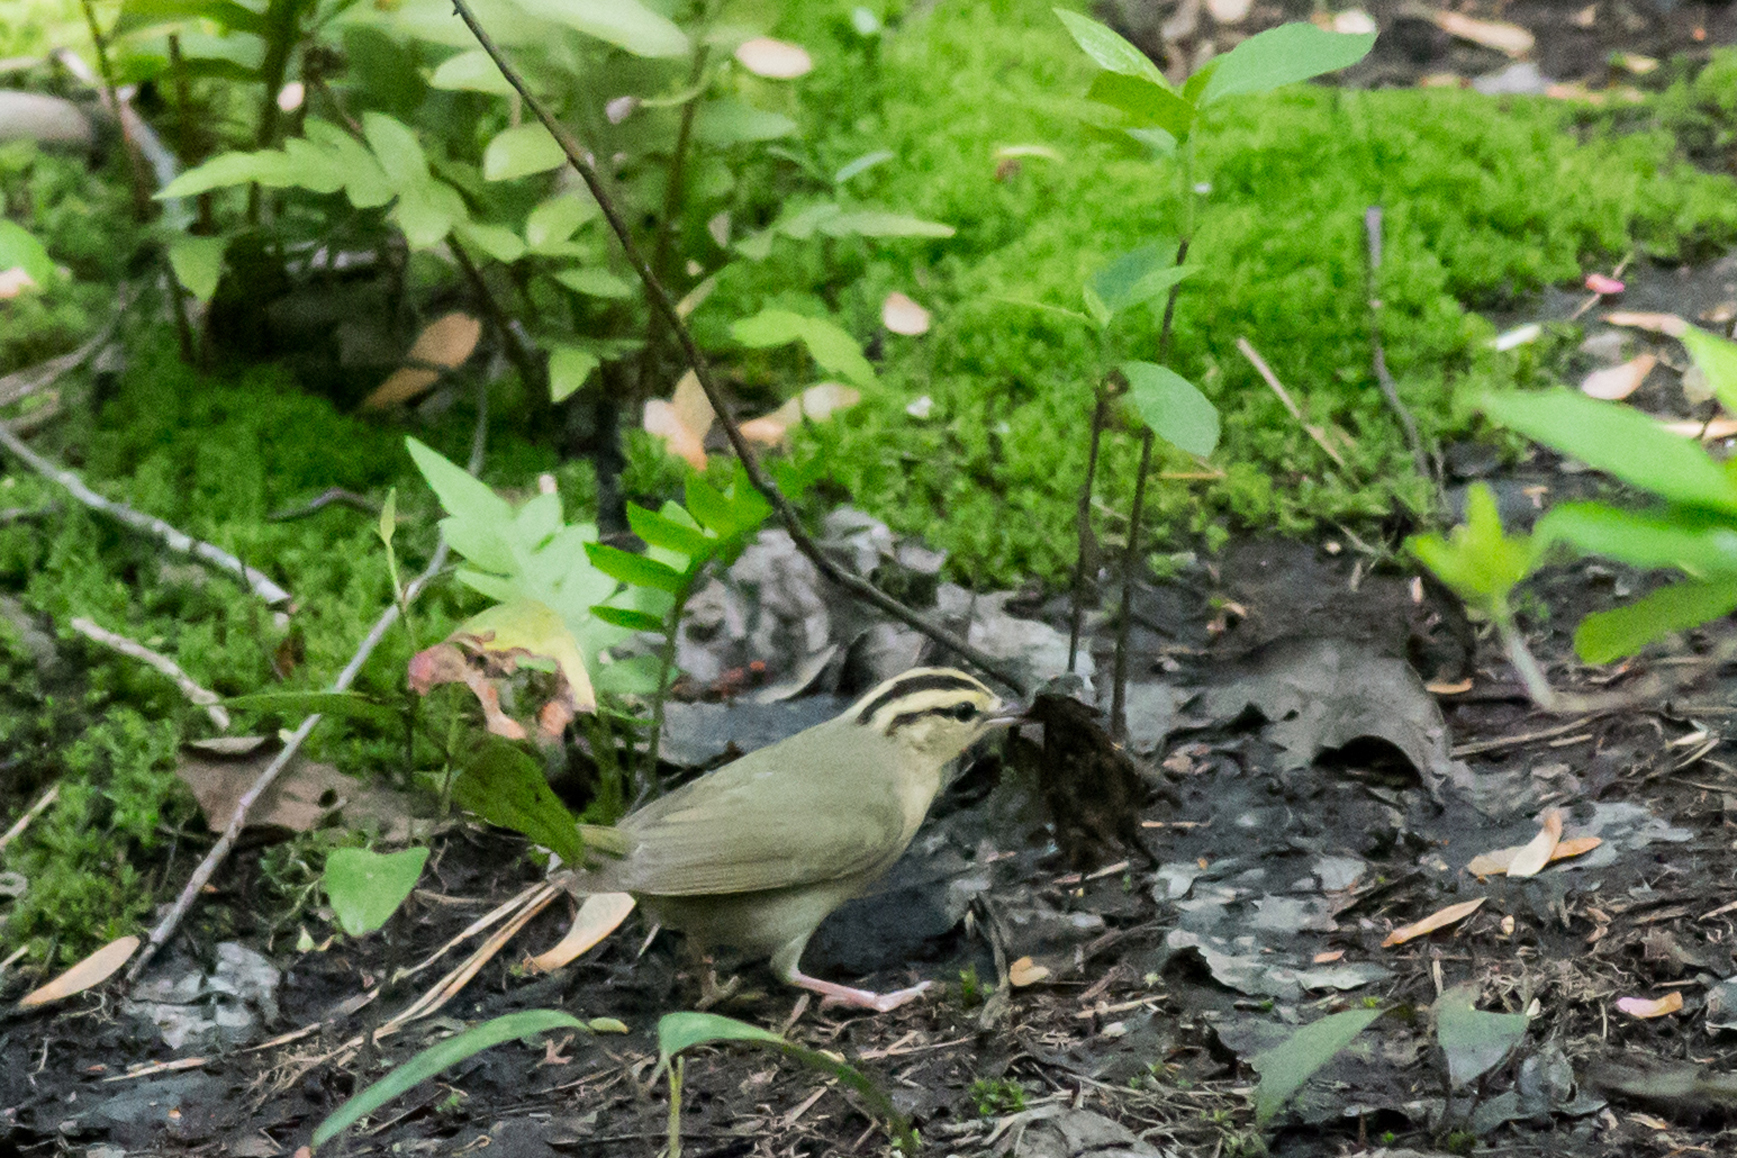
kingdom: Animalia
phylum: Chordata
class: Aves
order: Passeriformes
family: Parulidae
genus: Helmitheros
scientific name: Helmitheros vermivorum
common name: Worm-eating warbler
